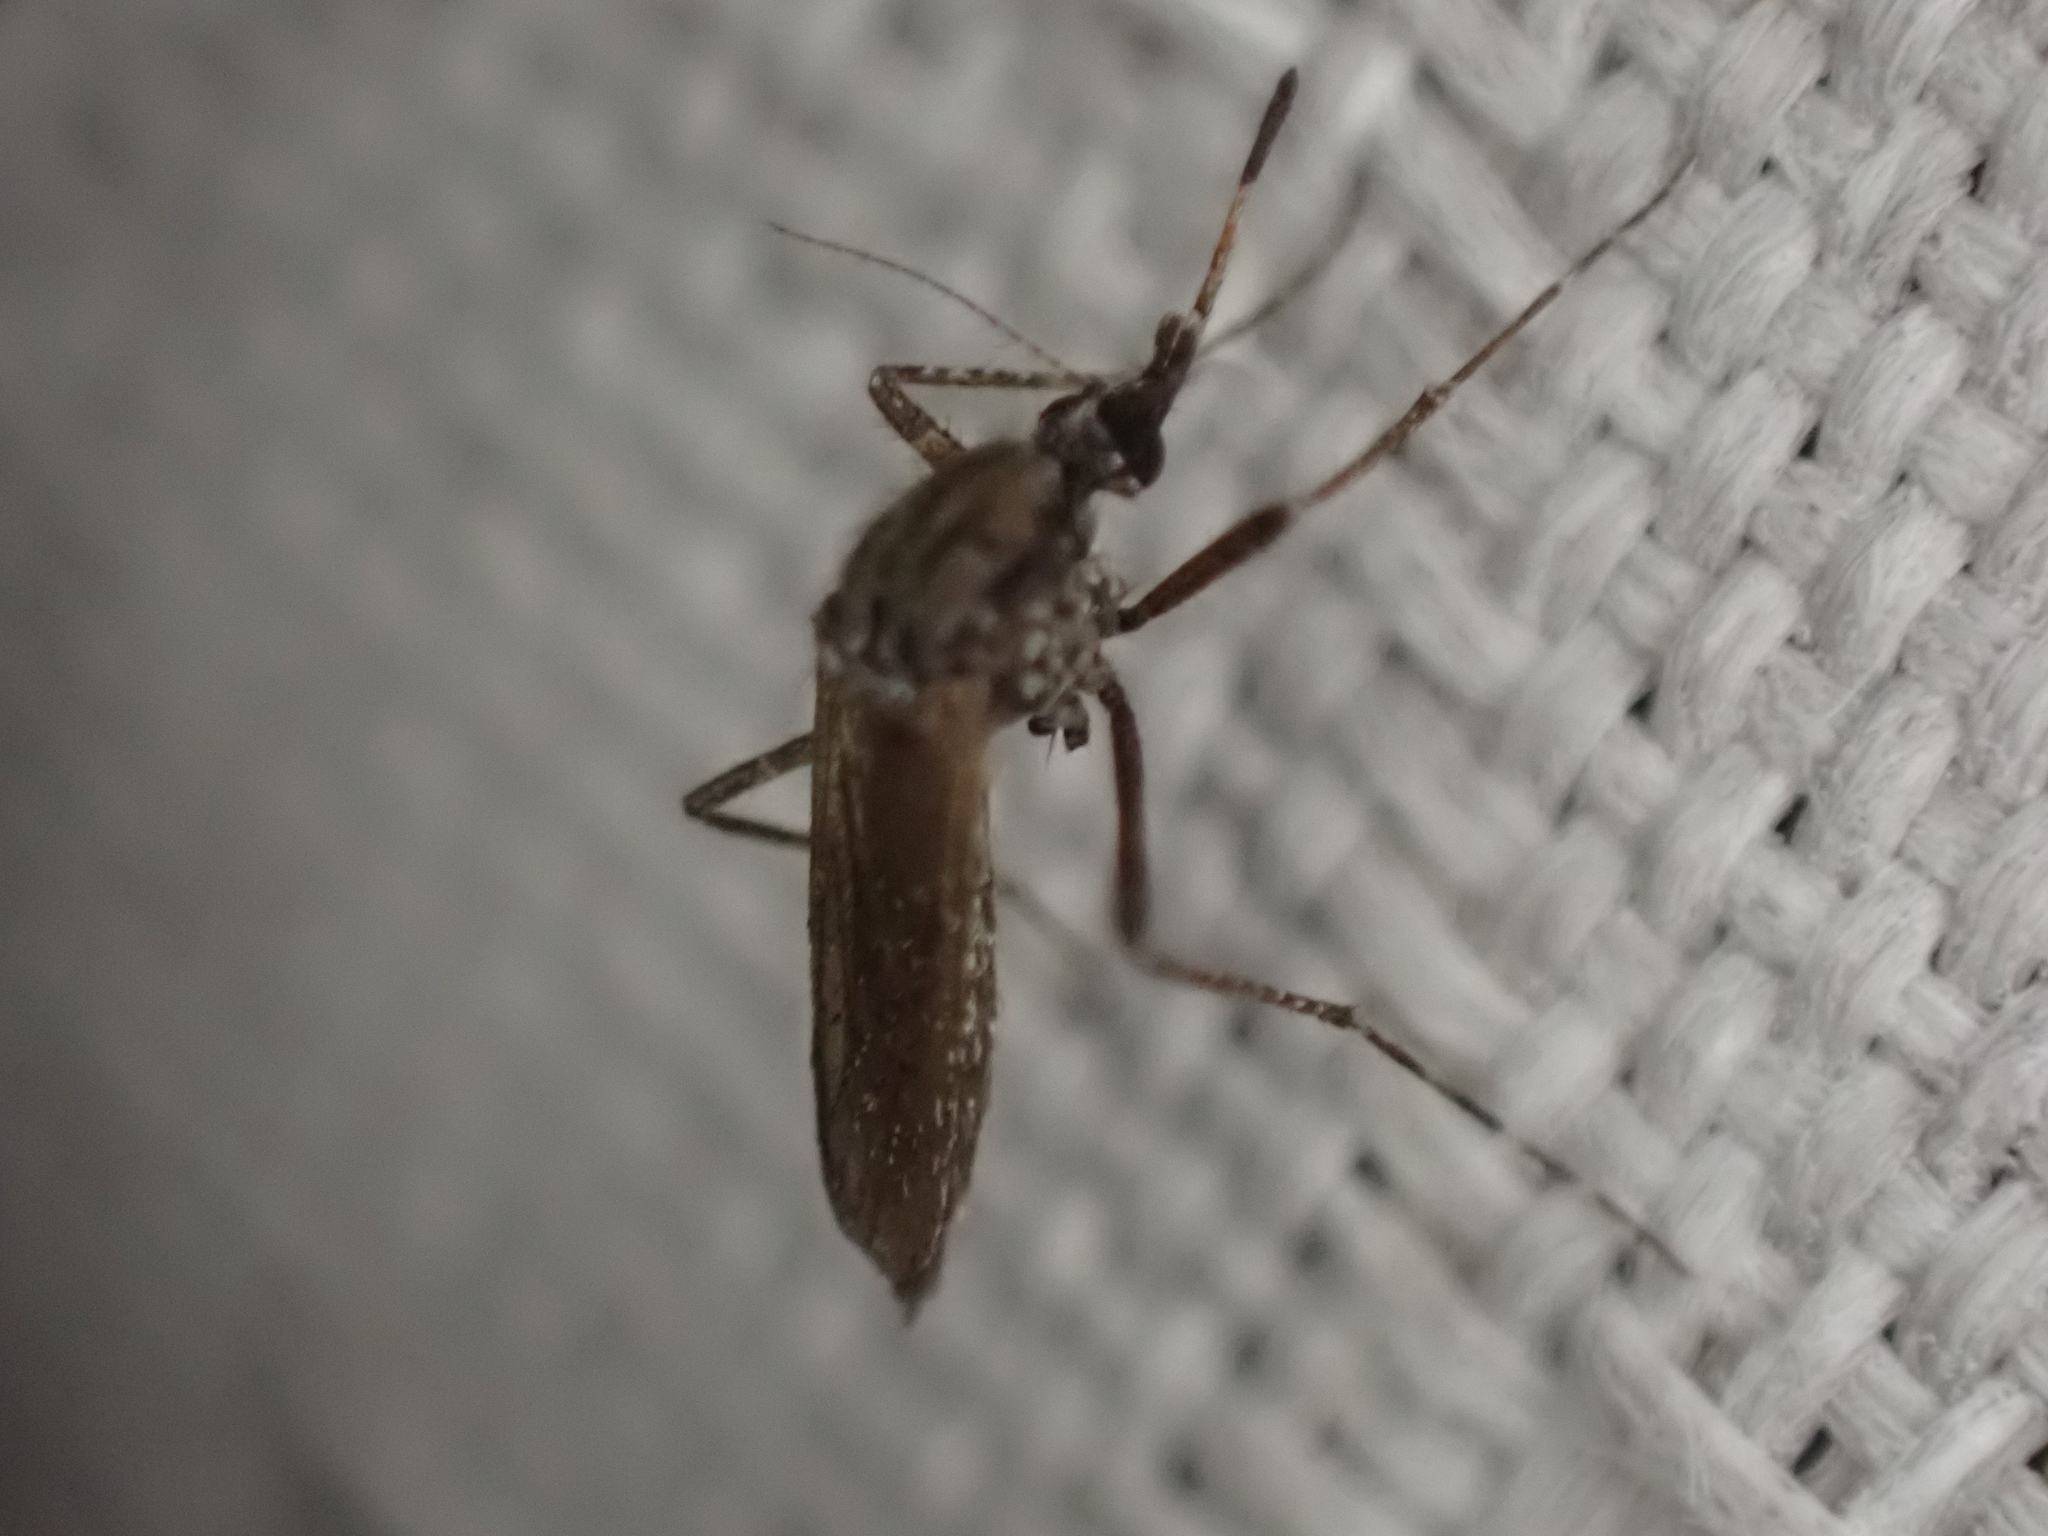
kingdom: Animalia
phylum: Arthropoda
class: Insecta
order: Diptera
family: Culicidae
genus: Psorophora
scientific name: Psorophora columbiae
